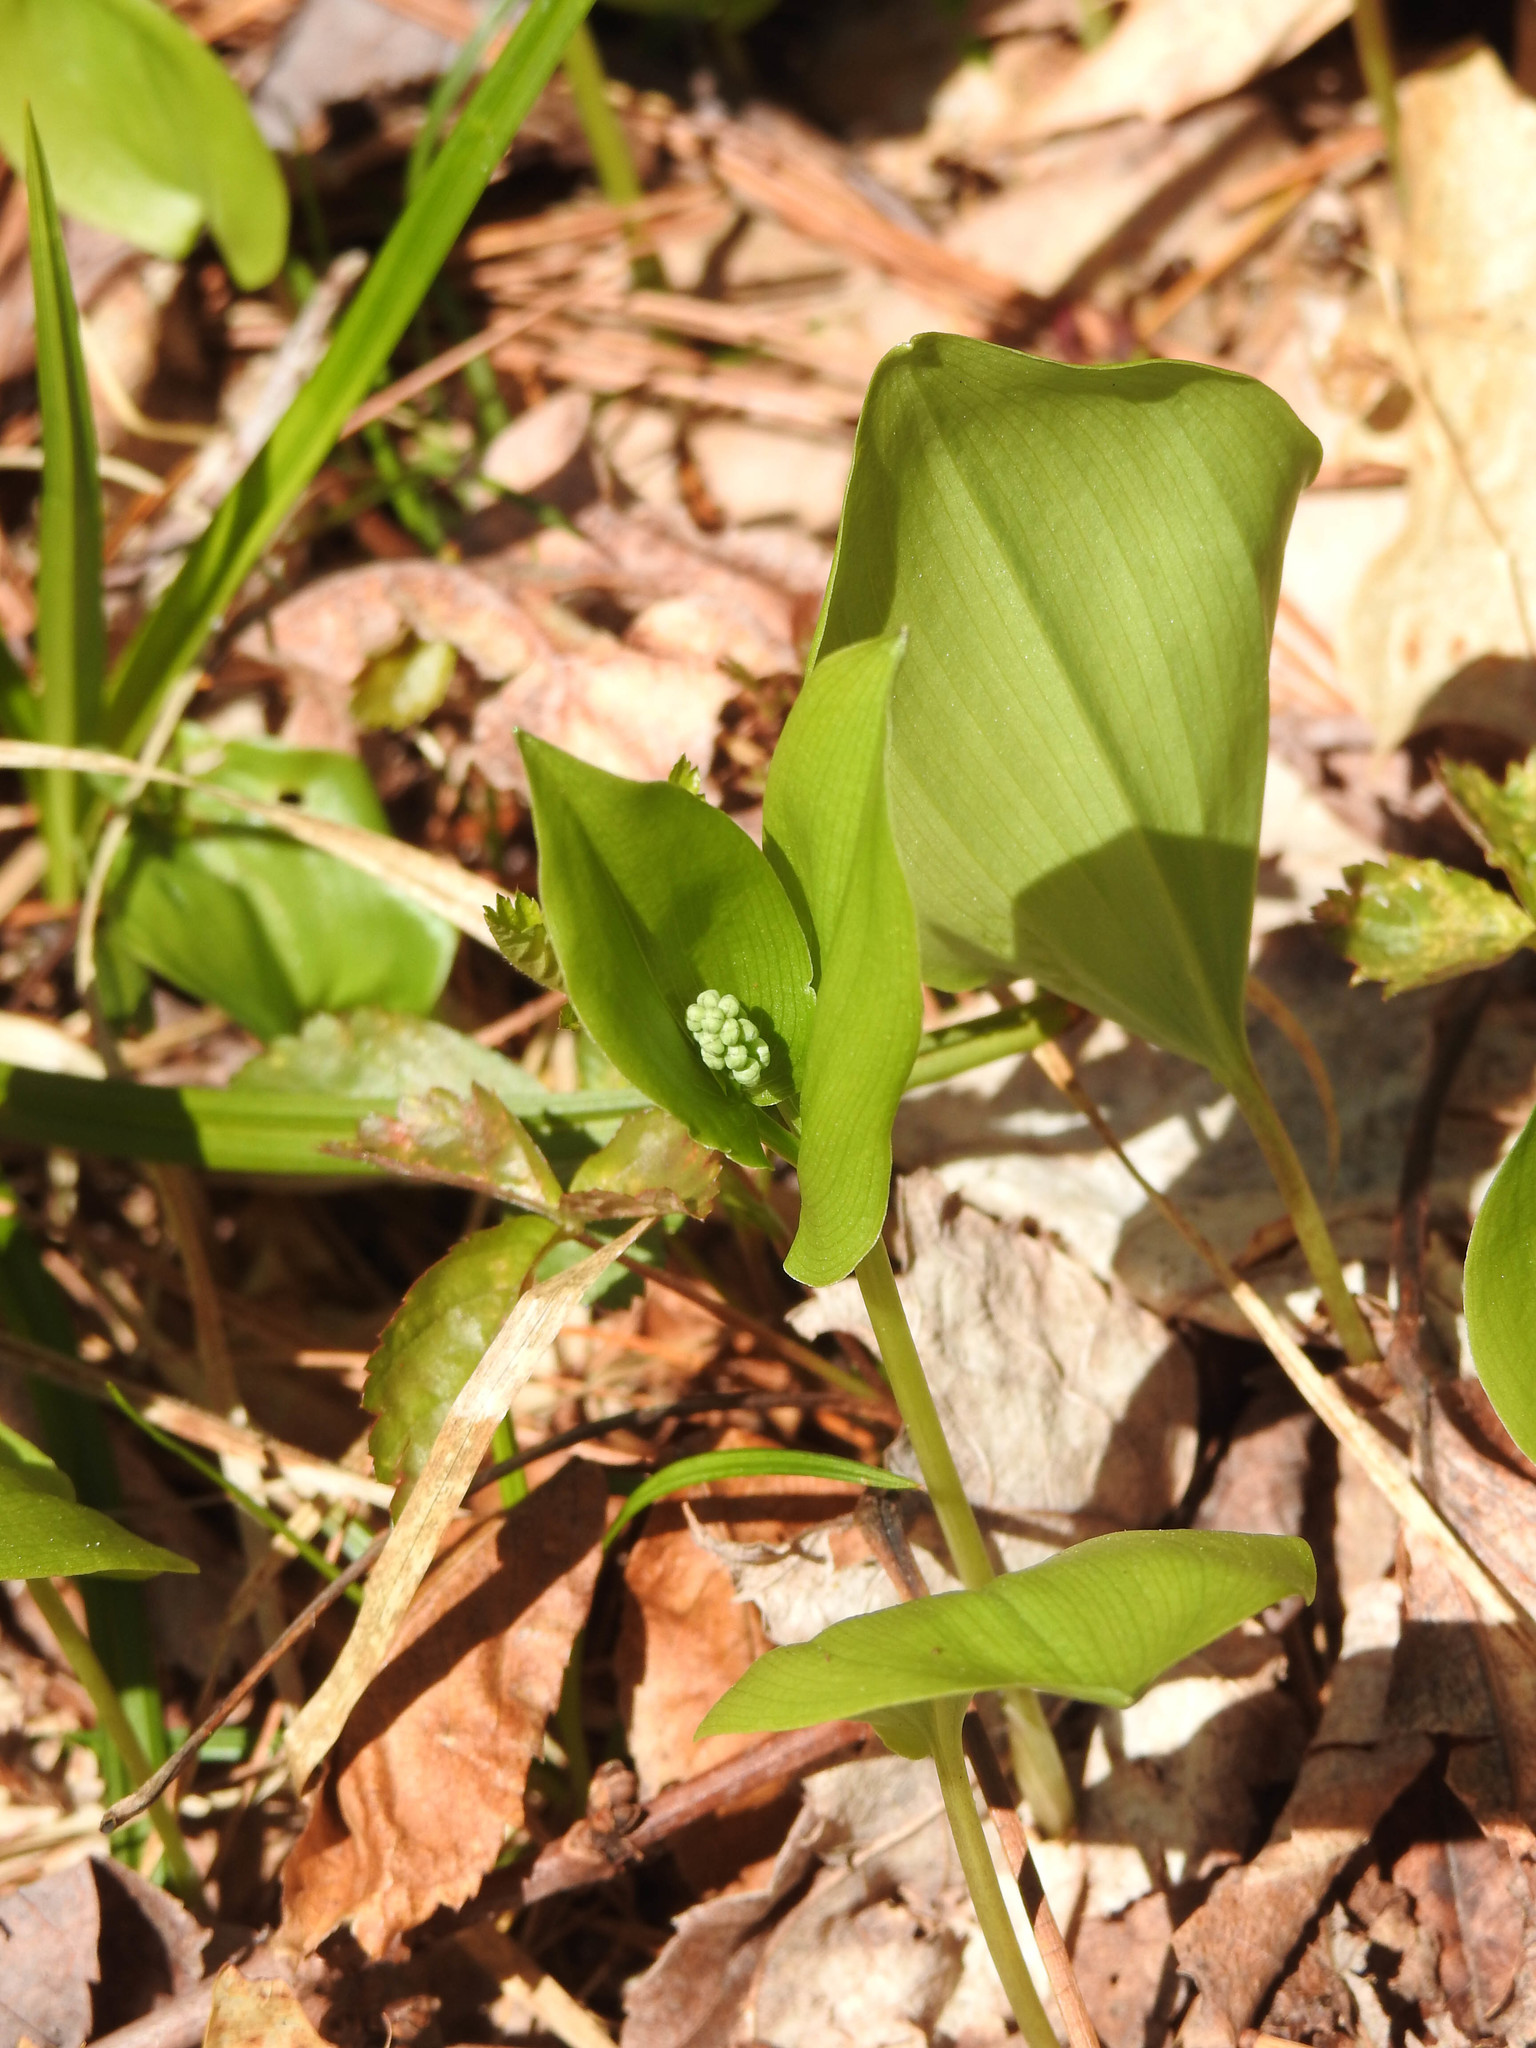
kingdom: Plantae
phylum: Tracheophyta
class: Liliopsida
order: Asparagales
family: Asparagaceae
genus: Maianthemum
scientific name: Maianthemum canadense
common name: False lily-of-the-valley
